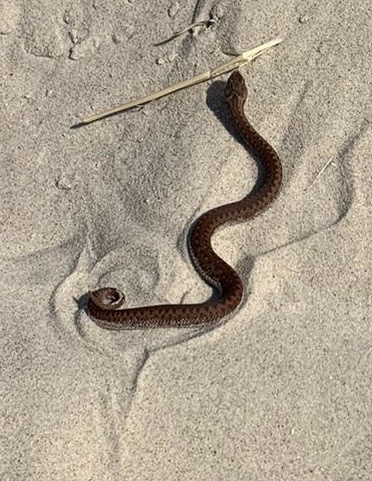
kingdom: Animalia
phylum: Chordata
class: Squamata
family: Viperidae
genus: Vipera
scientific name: Vipera berus
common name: Adder
